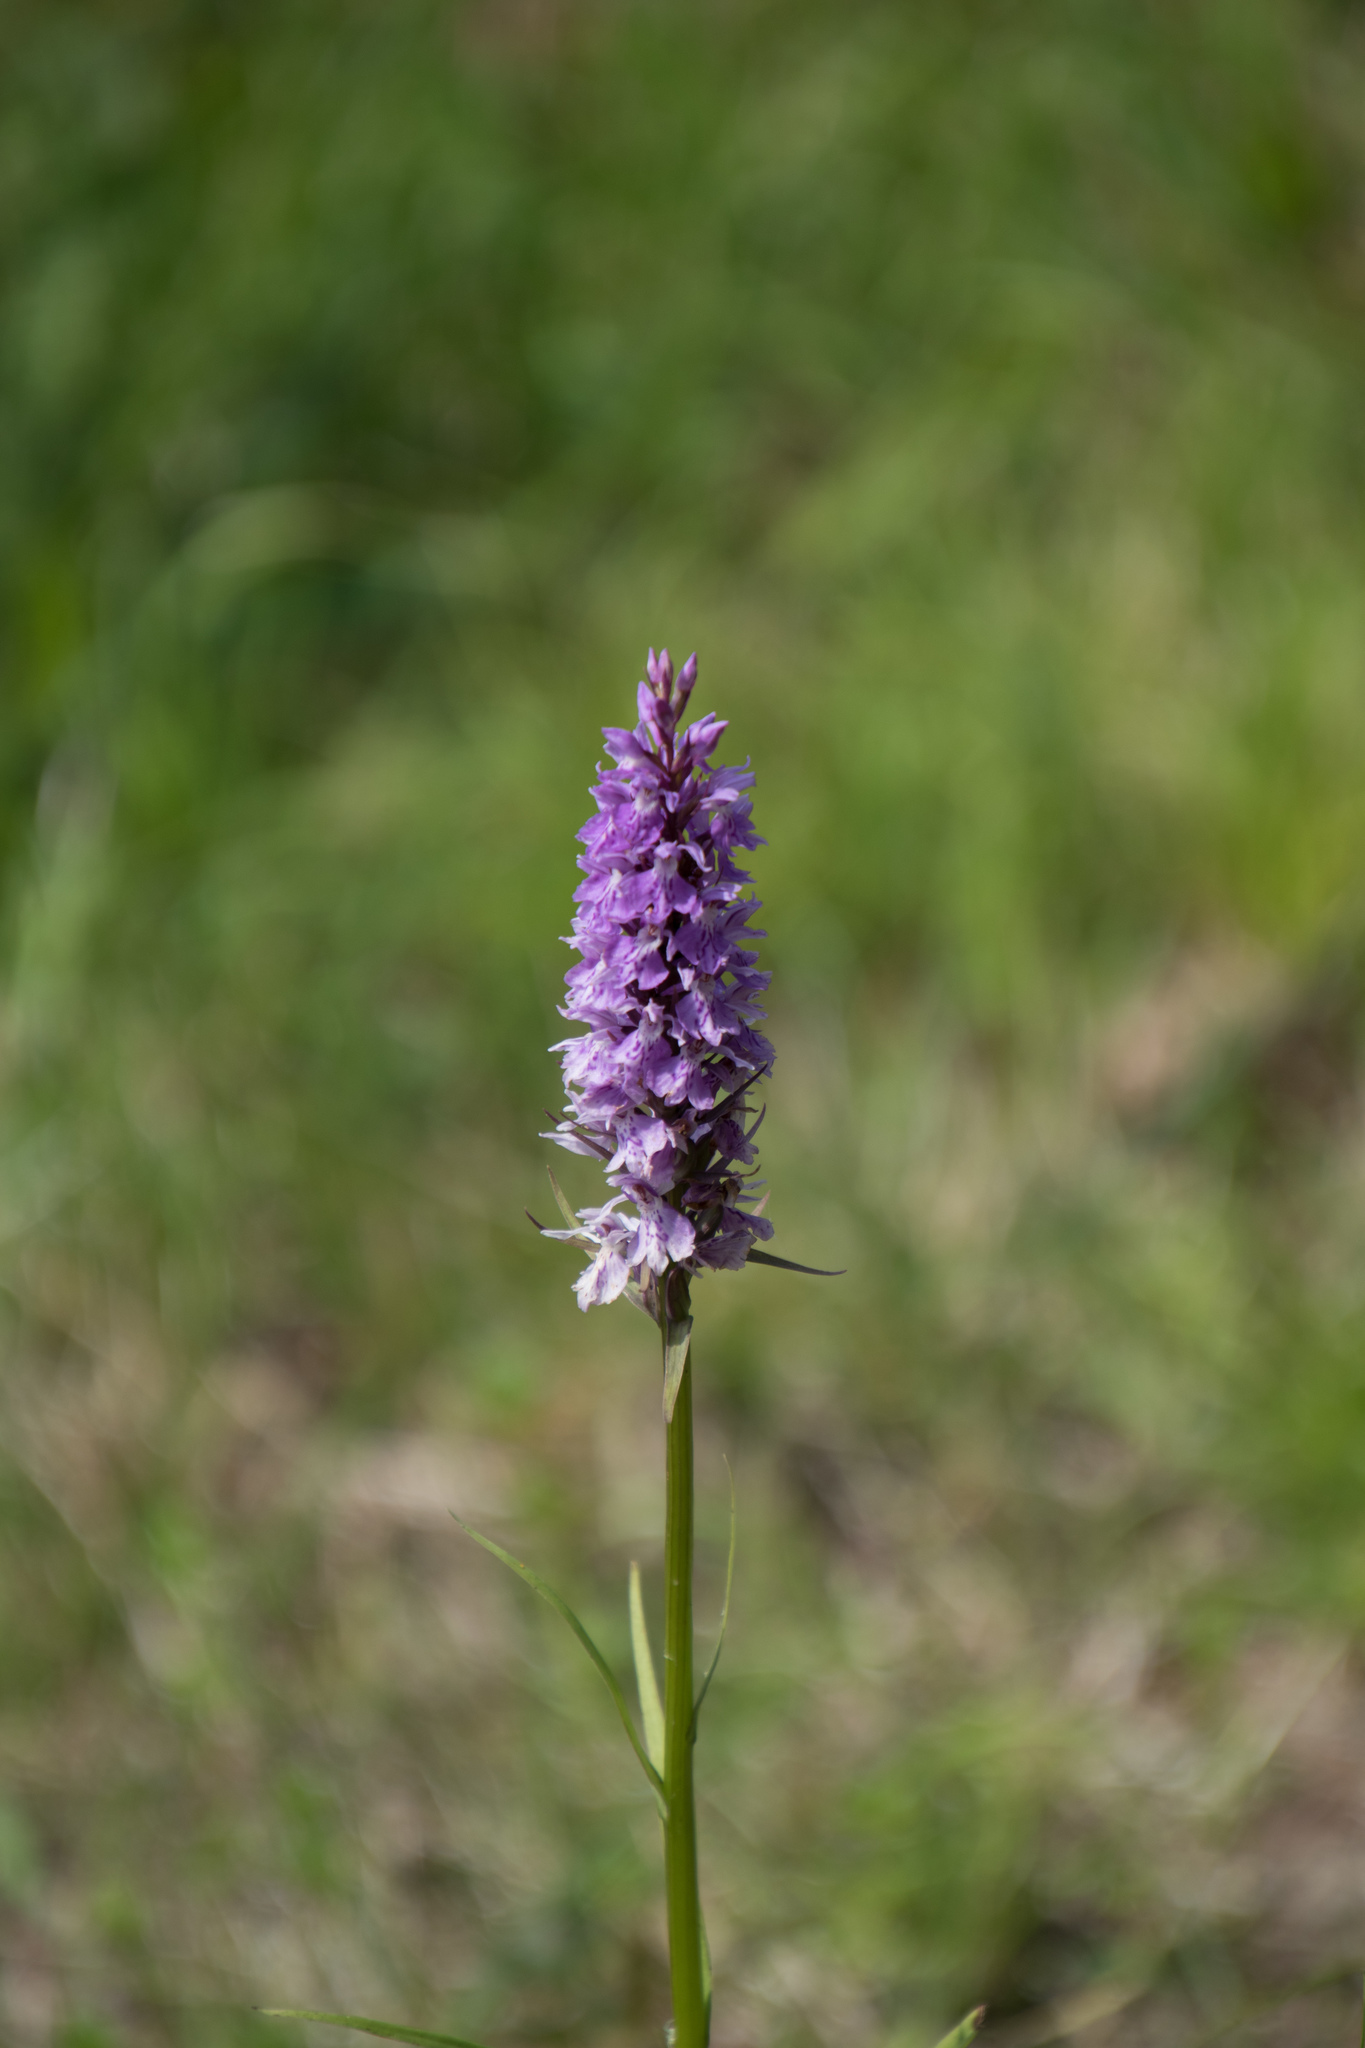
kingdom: Plantae
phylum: Tracheophyta
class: Liliopsida
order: Asparagales
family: Orchidaceae
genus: Dactylorhiza
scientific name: Dactylorhiza maculata
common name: Heath spotted-orchid
